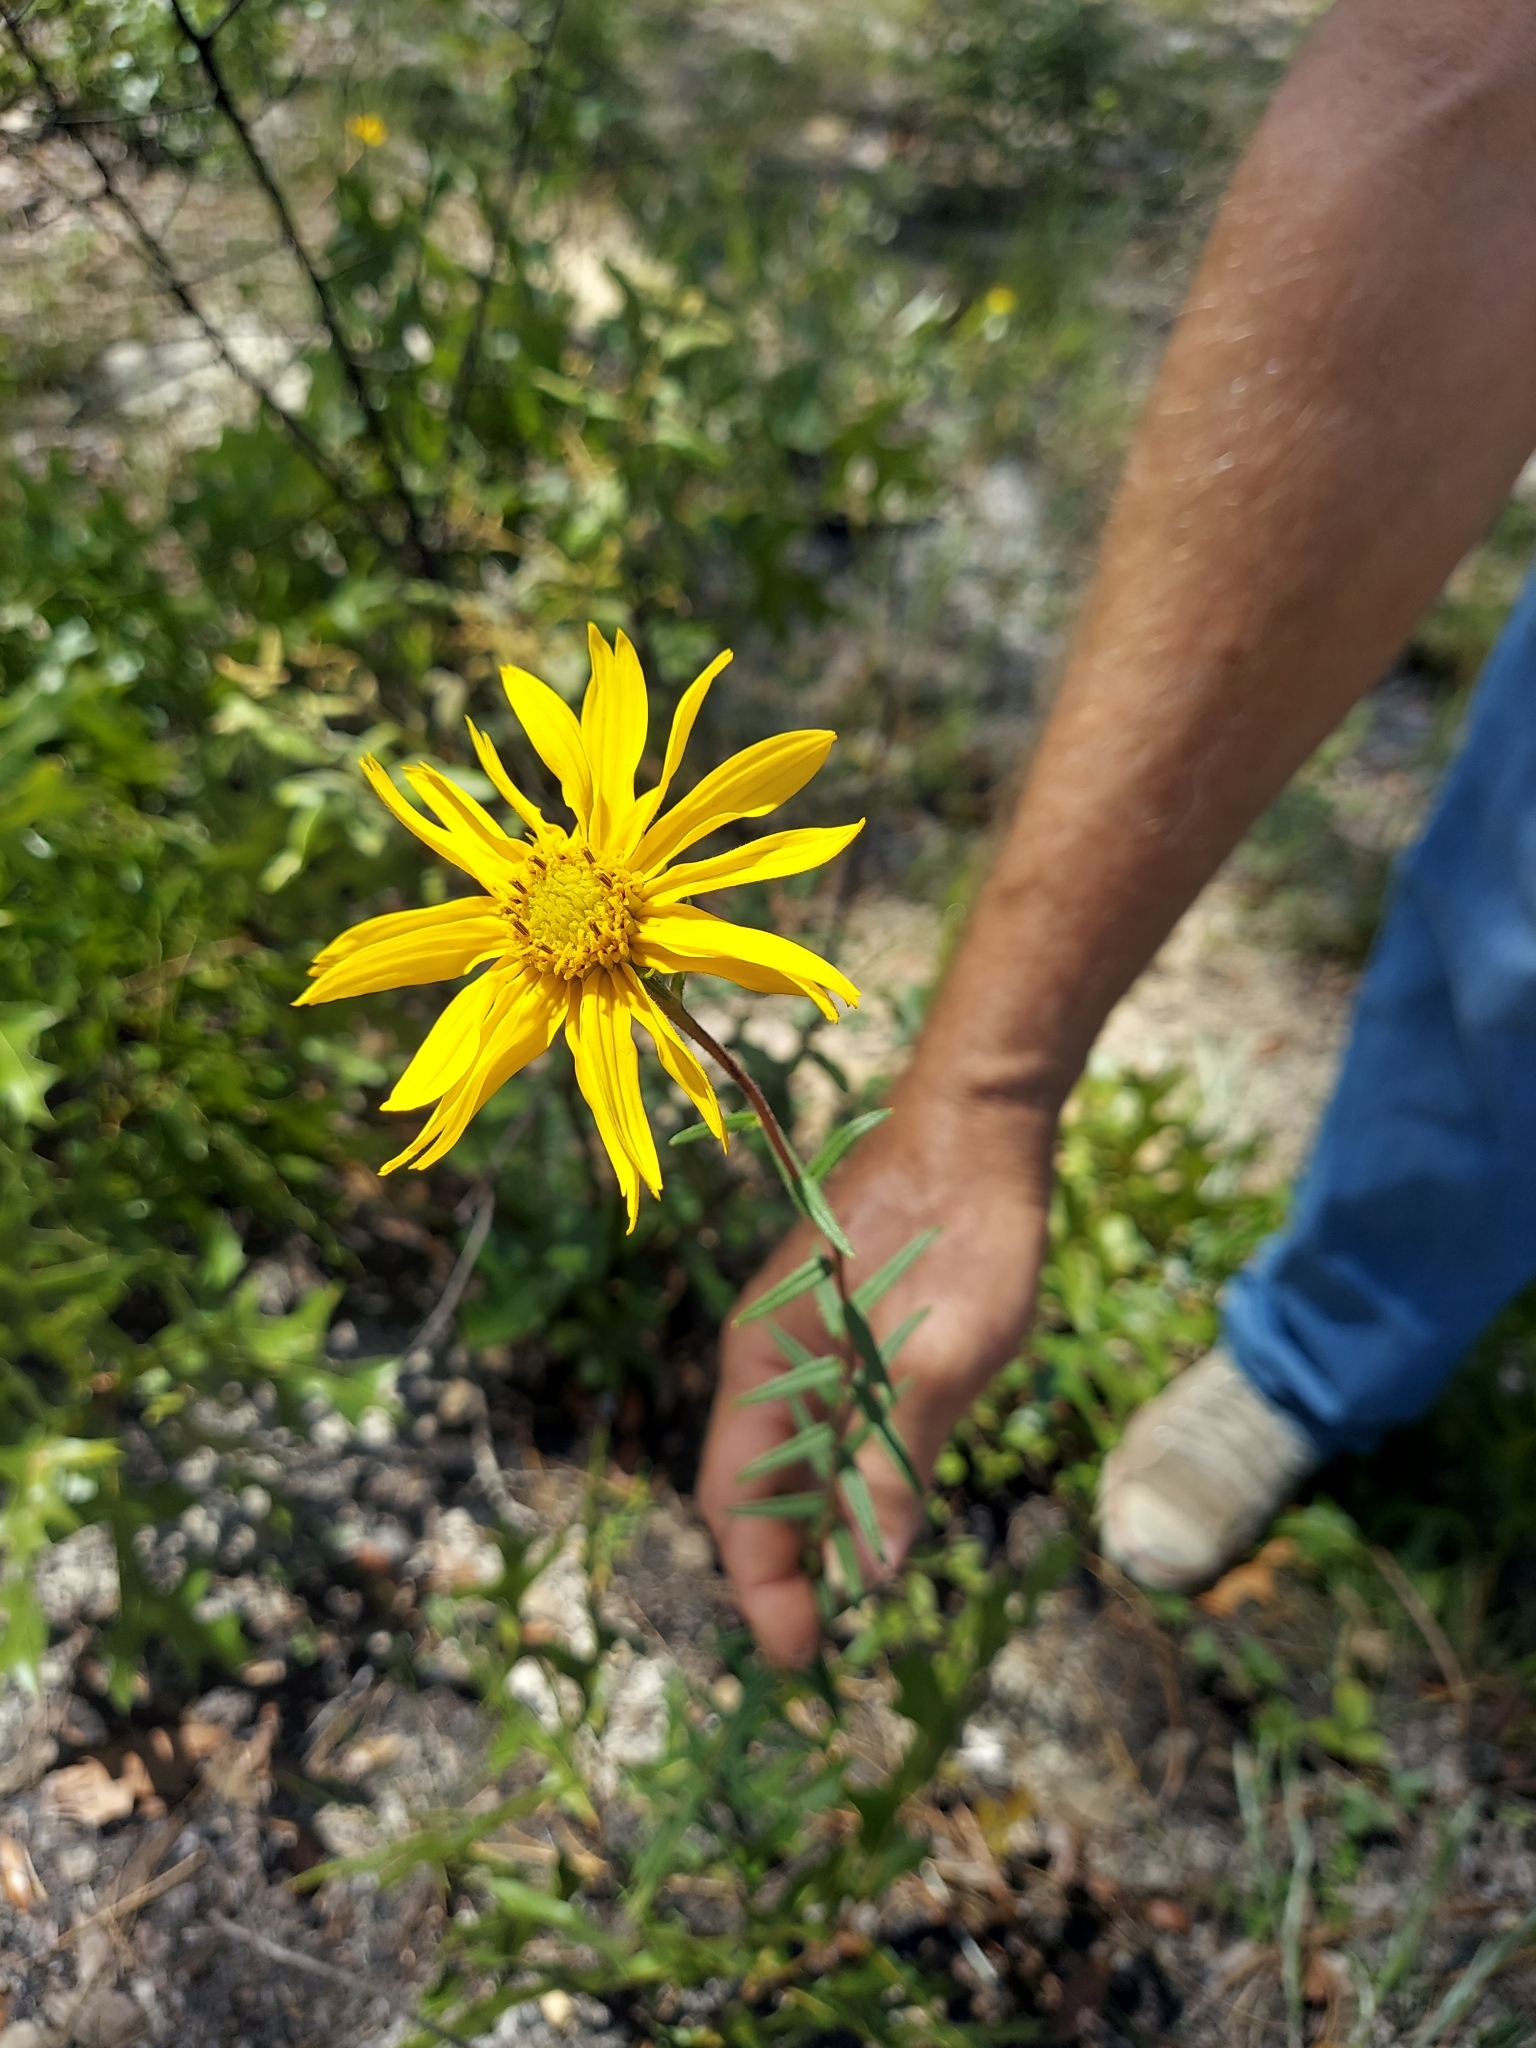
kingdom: Plantae
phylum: Tracheophyta
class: Magnoliopsida
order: Asterales
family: Asteraceae
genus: Phoebanthus
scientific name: Phoebanthus grandiflora
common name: Florida false sunflower
